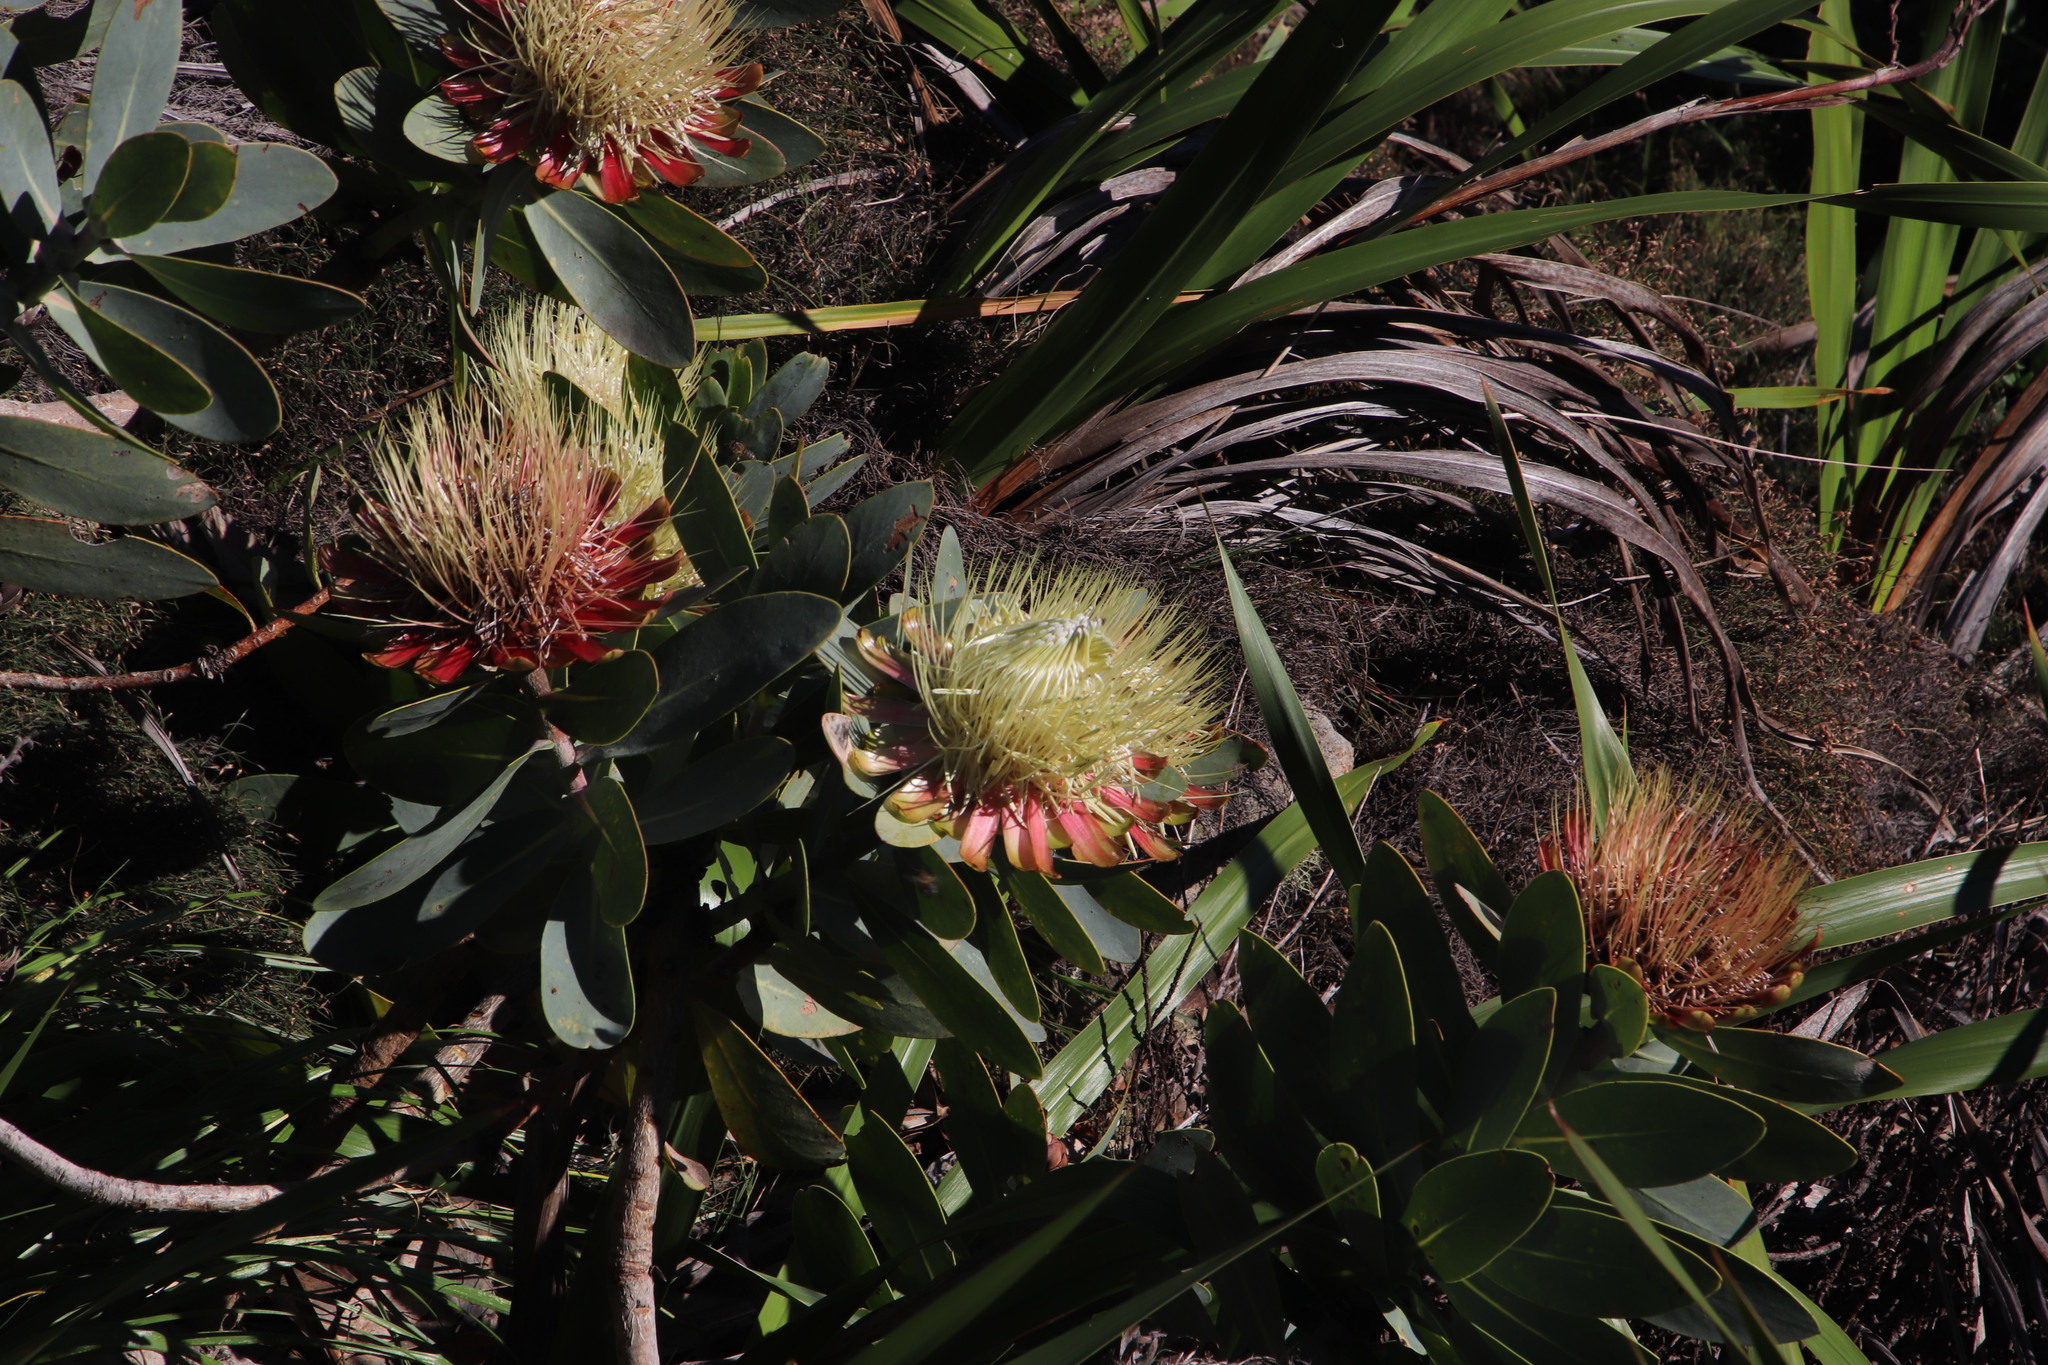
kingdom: Plantae
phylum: Tracheophyta
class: Magnoliopsida
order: Proteales
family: Proteaceae
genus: Protea
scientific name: Protea nitida
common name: Tree protea
